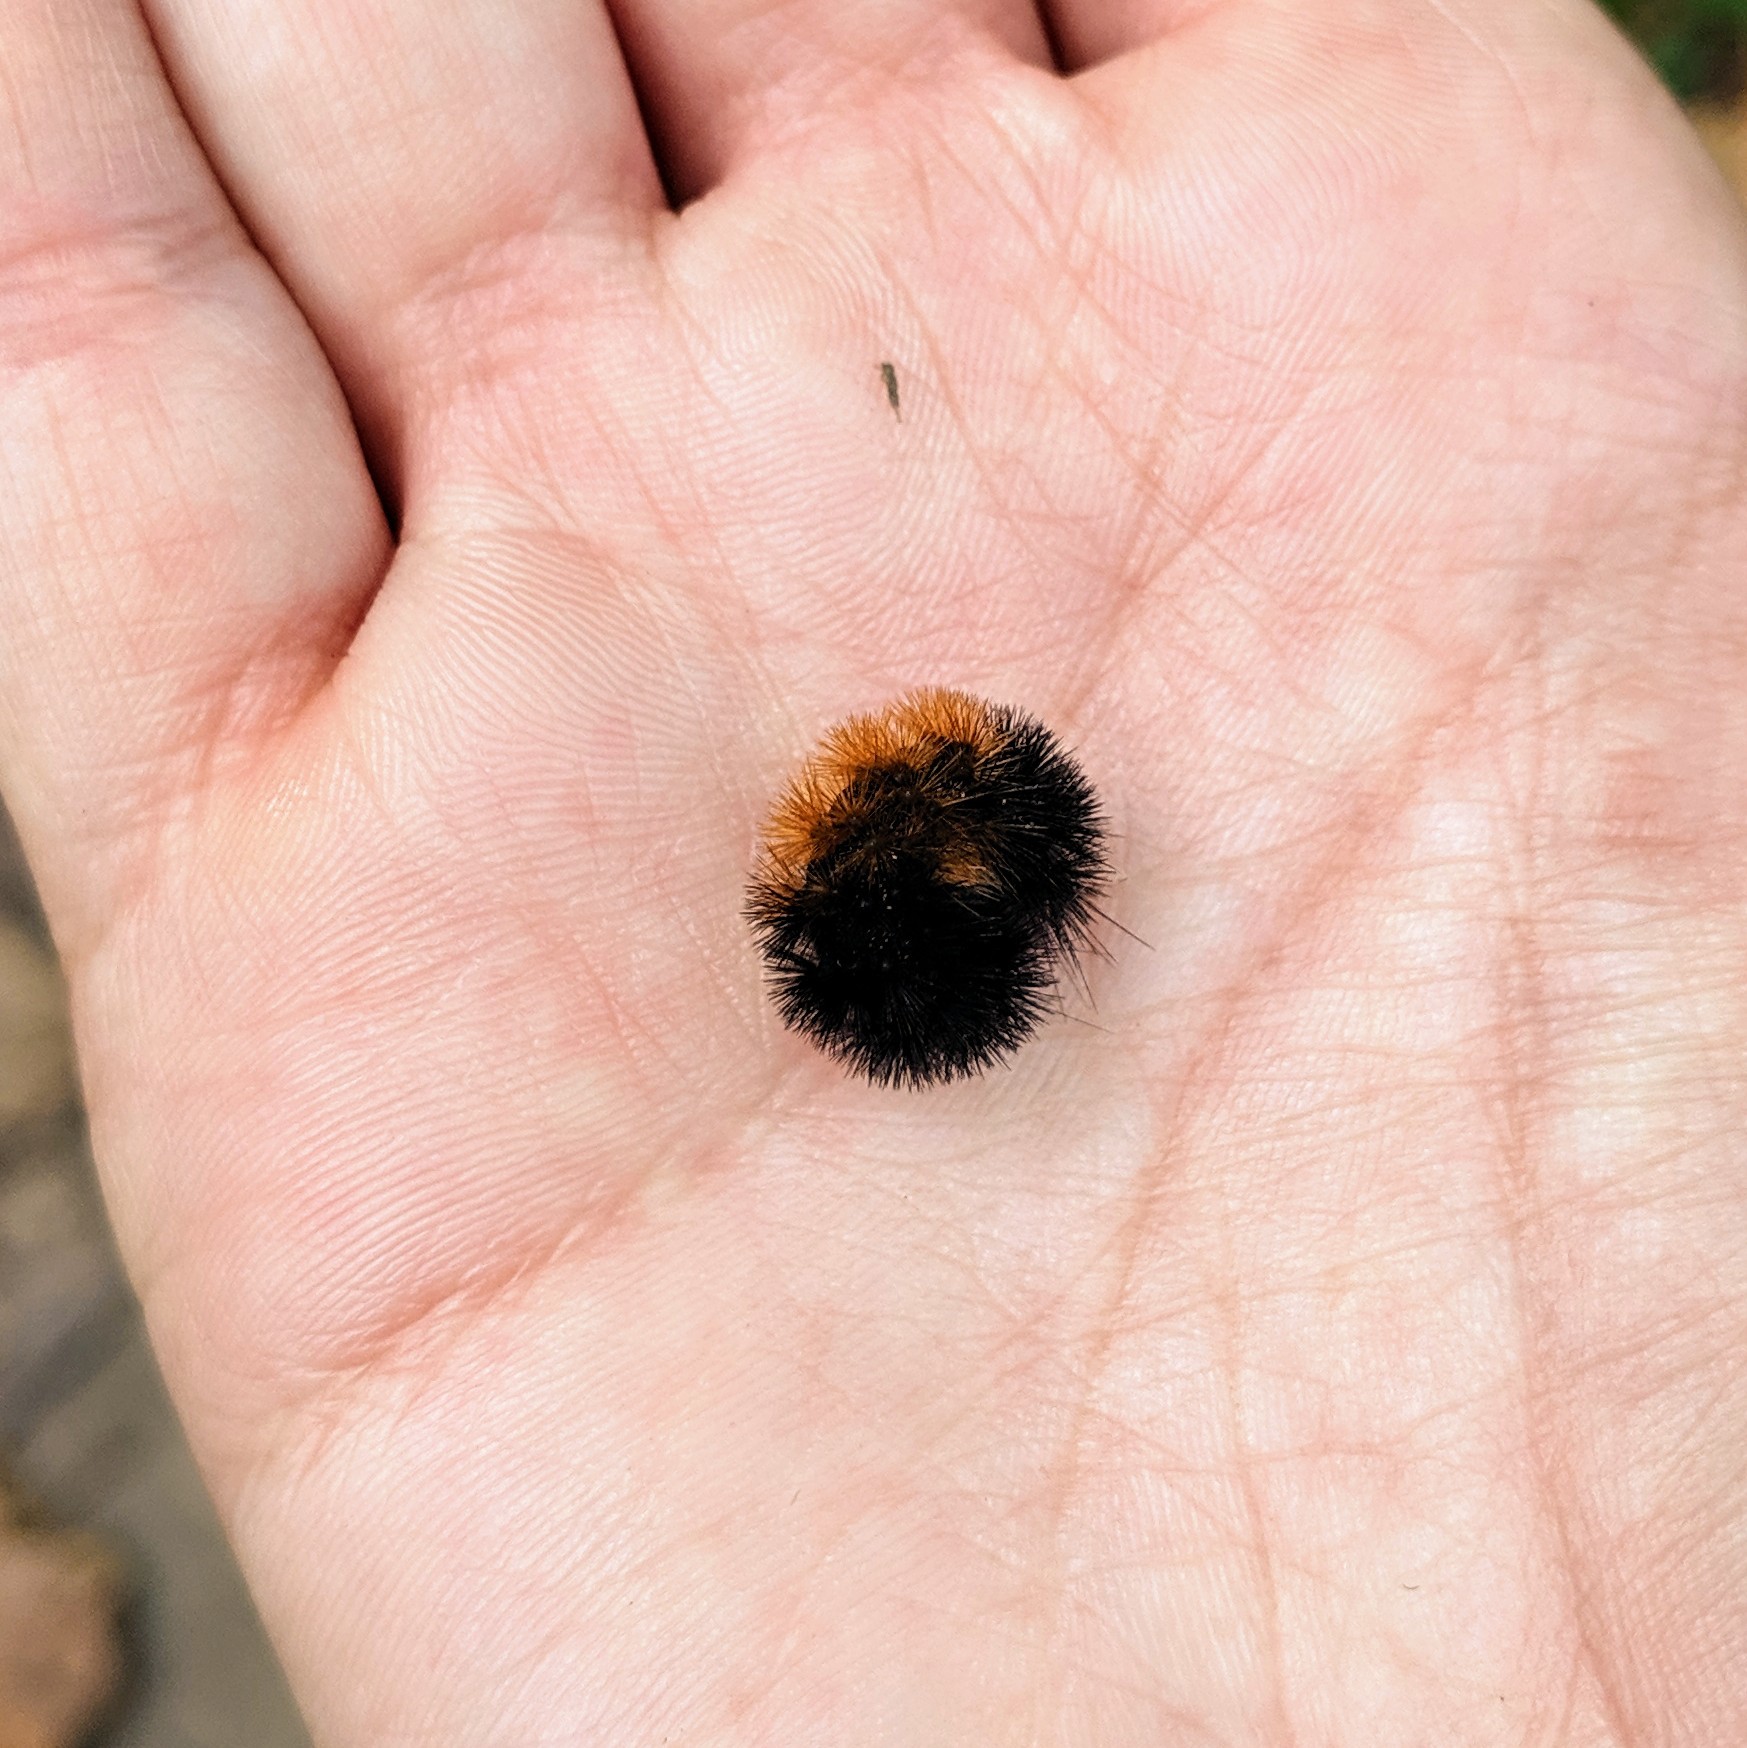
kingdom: Animalia
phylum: Arthropoda
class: Insecta
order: Lepidoptera
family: Erebidae
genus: Pyrrharctia
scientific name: Pyrrharctia isabella
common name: Isabella tiger moth
